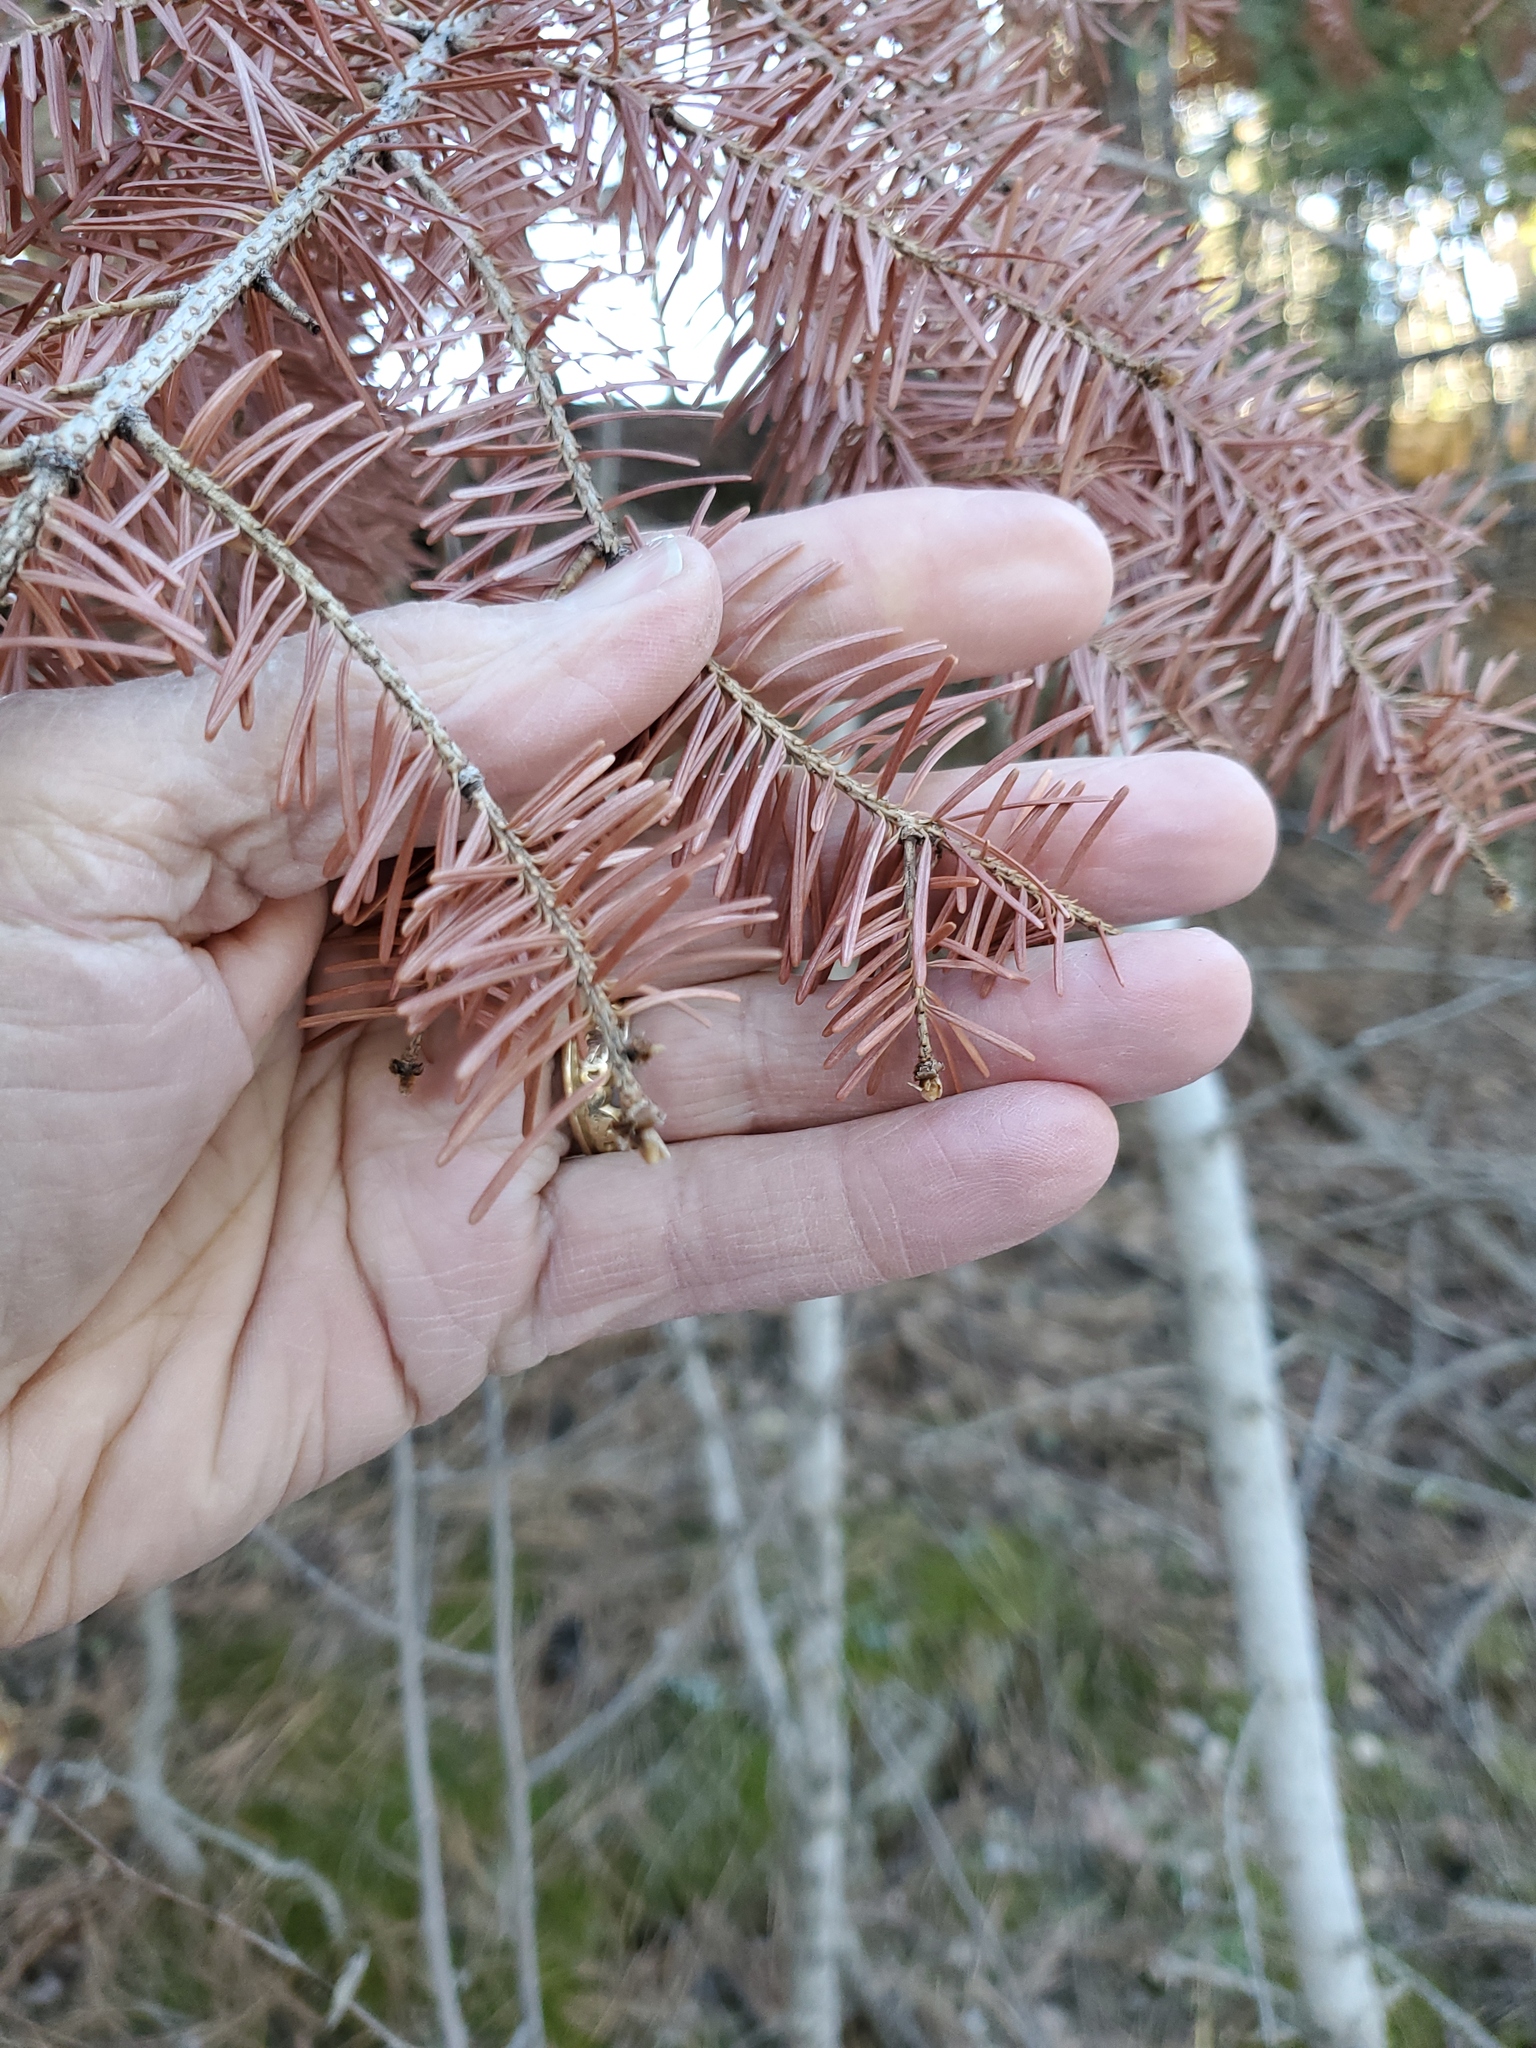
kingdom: Plantae
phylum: Tracheophyta
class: Pinopsida
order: Pinales
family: Pinaceae
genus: Pseudotsuga
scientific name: Pseudotsuga menziesii
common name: Douglas fir
